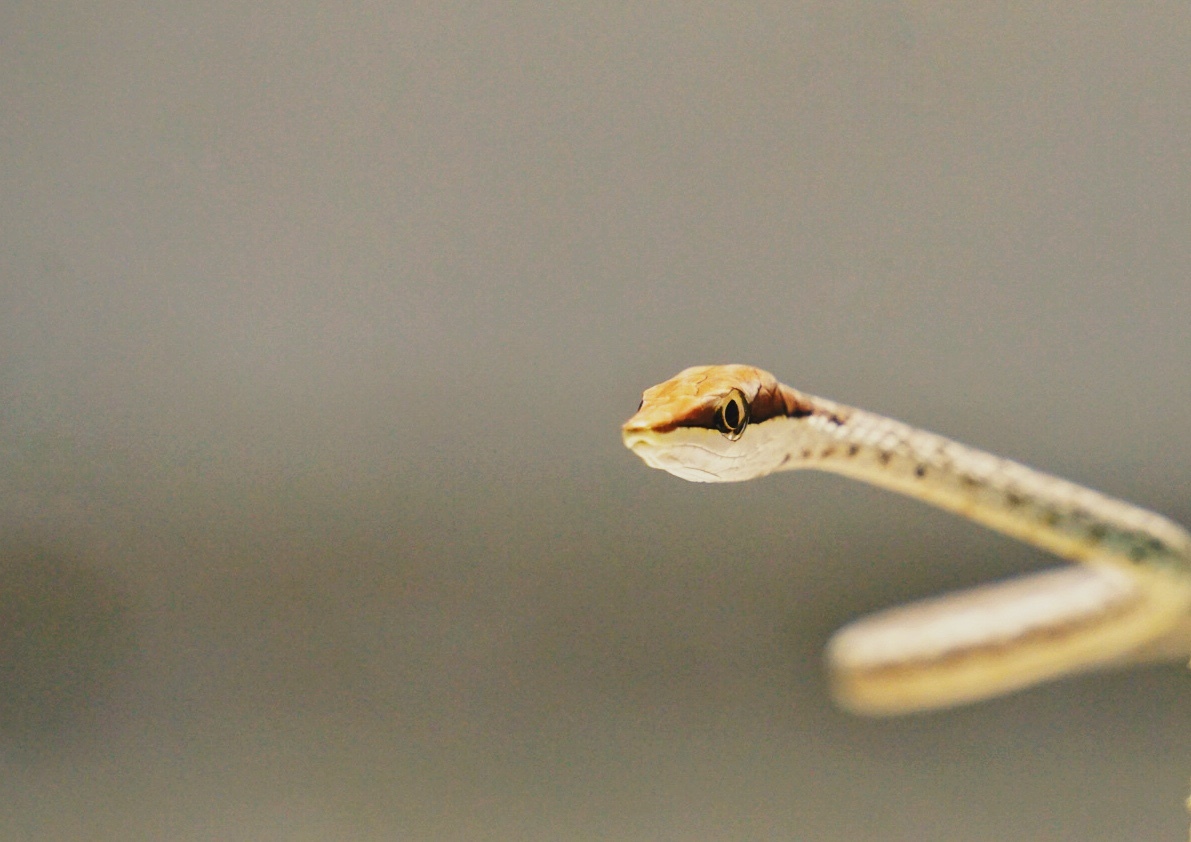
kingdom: Animalia
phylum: Chordata
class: Squamata
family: Colubridae
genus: Oxybelis
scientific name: Oxybelis potosiensis
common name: Gulf coast vine snake
